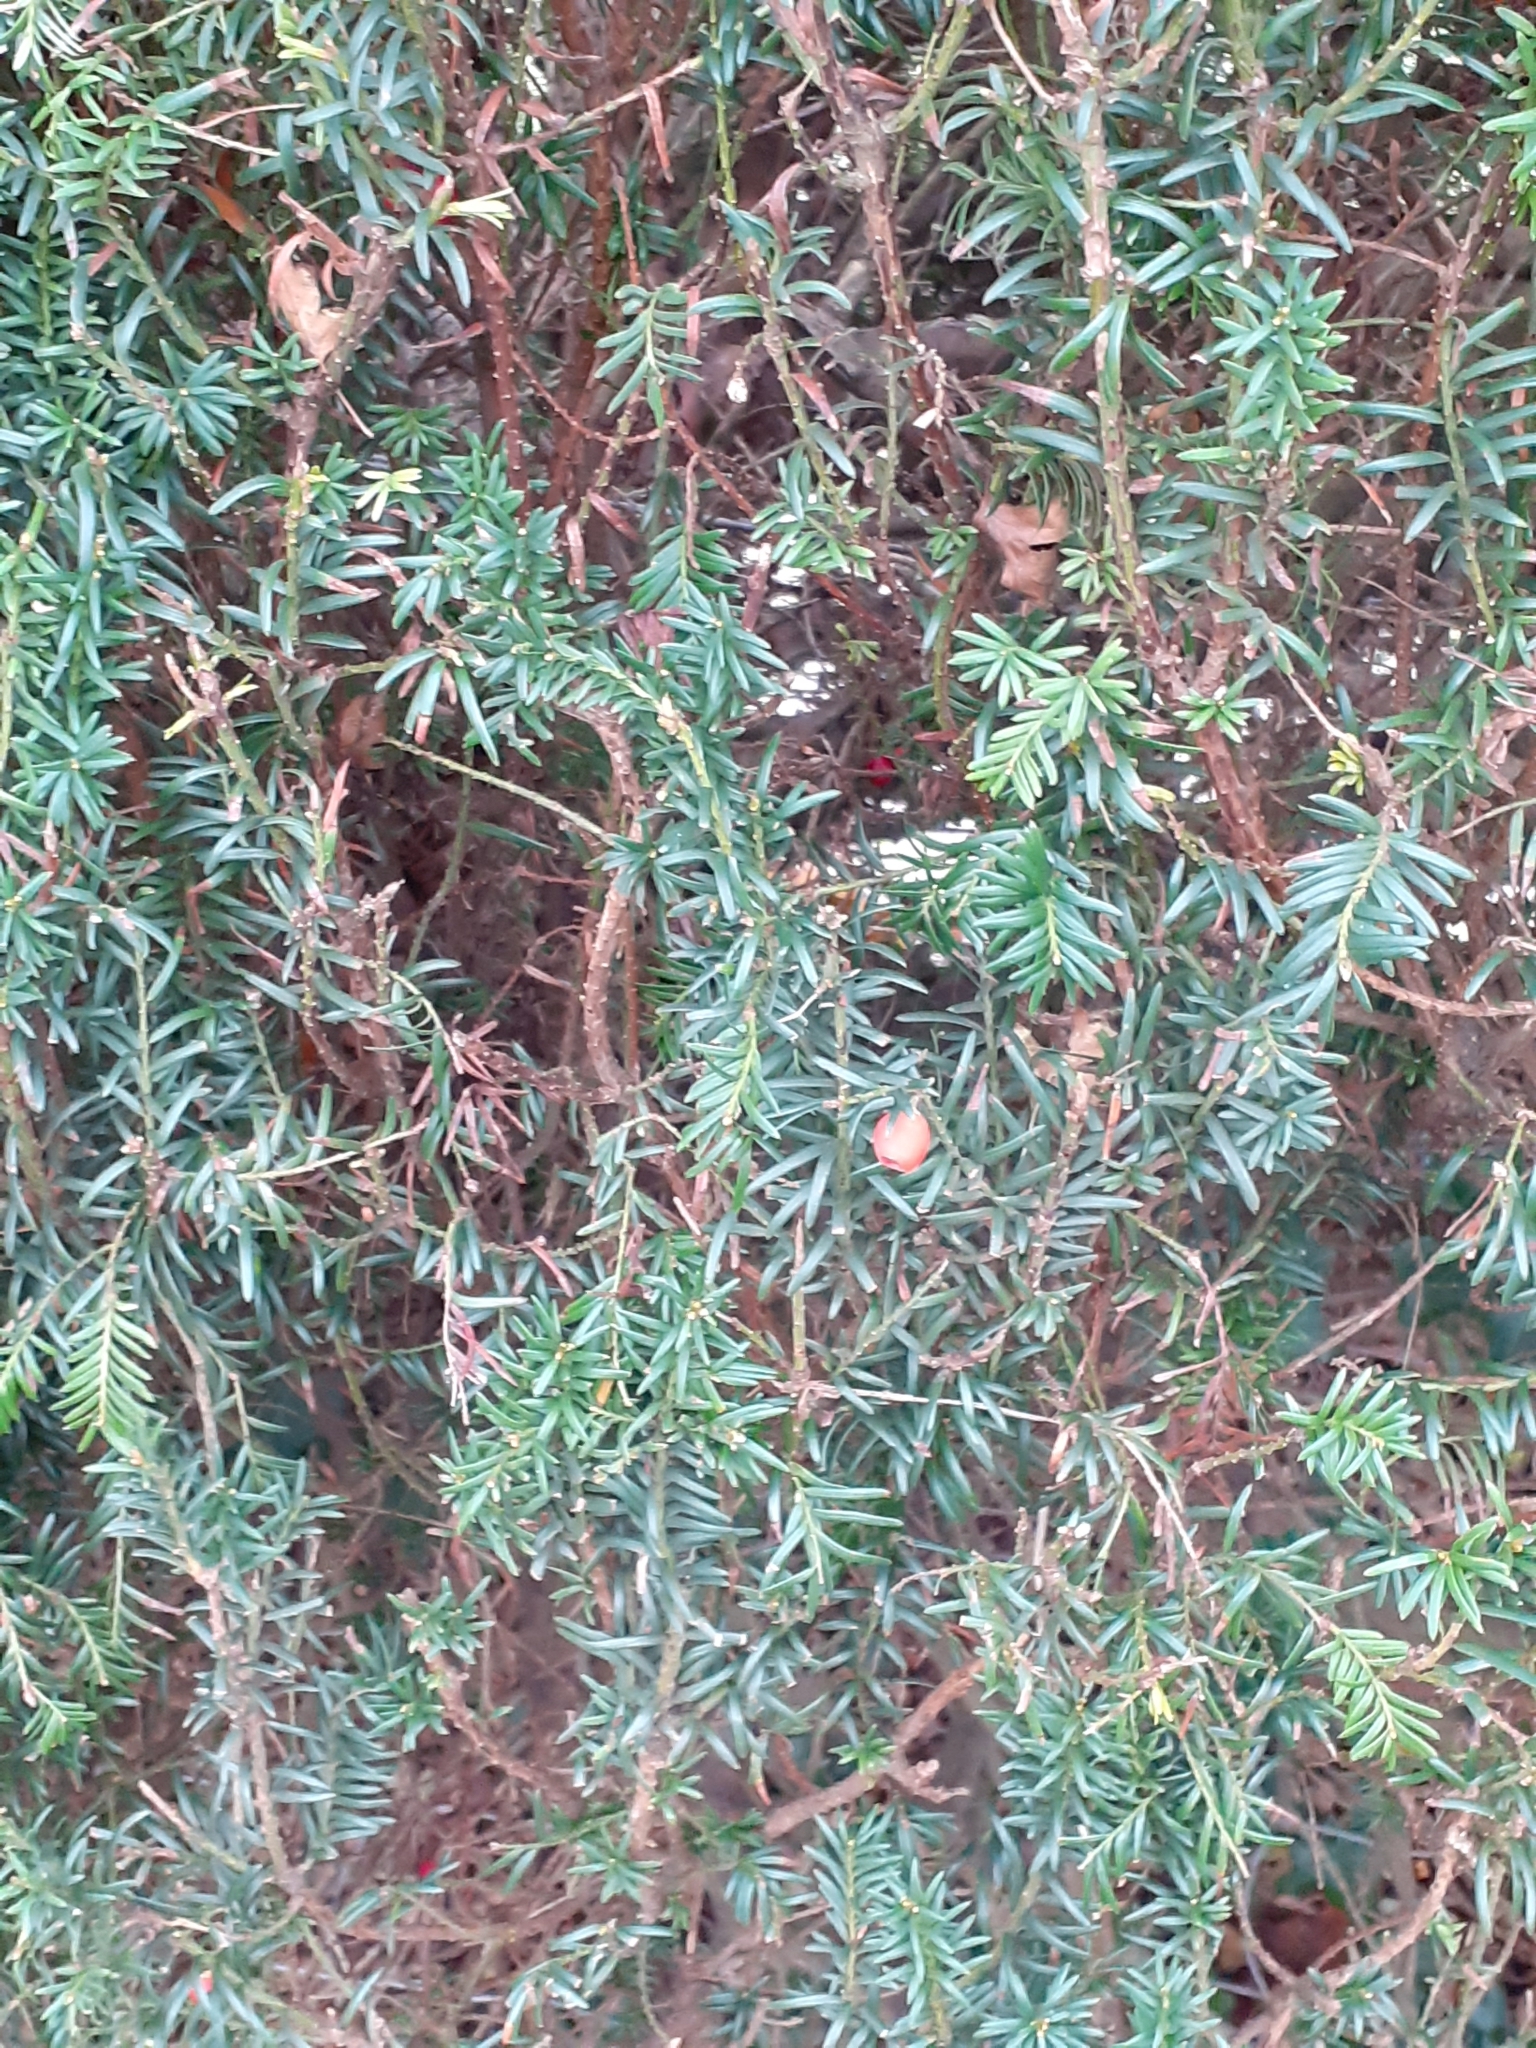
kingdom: Plantae
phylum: Tracheophyta
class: Pinopsida
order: Pinales
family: Taxaceae
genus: Taxus
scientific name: Taxus baccata
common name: Yew
